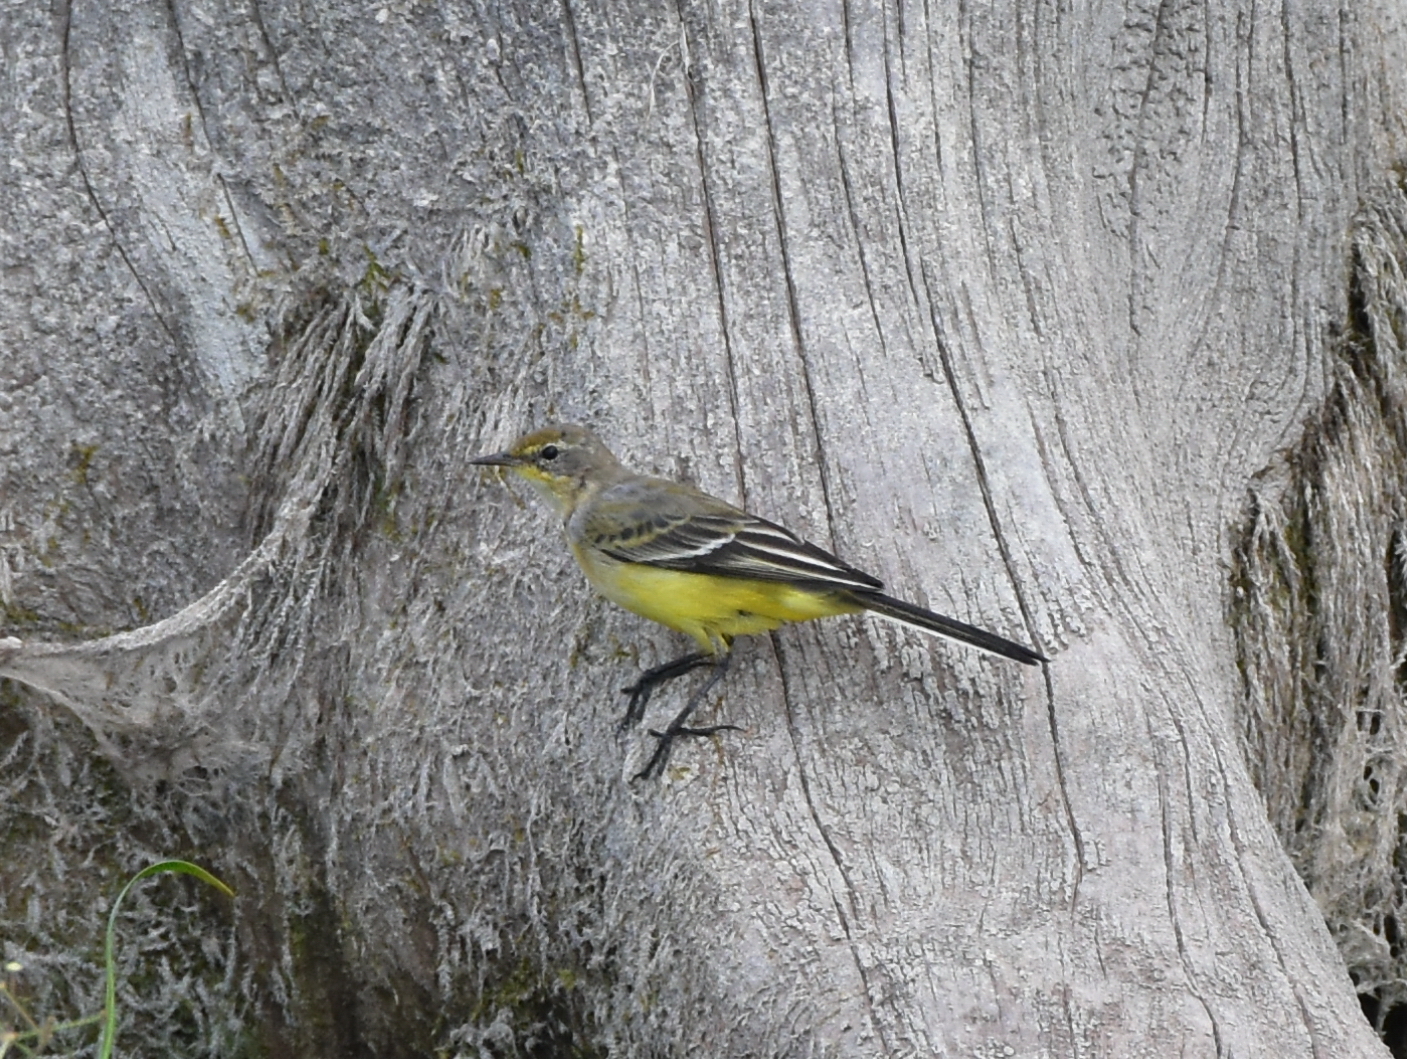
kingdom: Animalia
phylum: Chordata
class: Aves
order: Passeriformes
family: Motacillidae
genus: Motacilla
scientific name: Motacilla flava
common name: Western yellow wagtail
